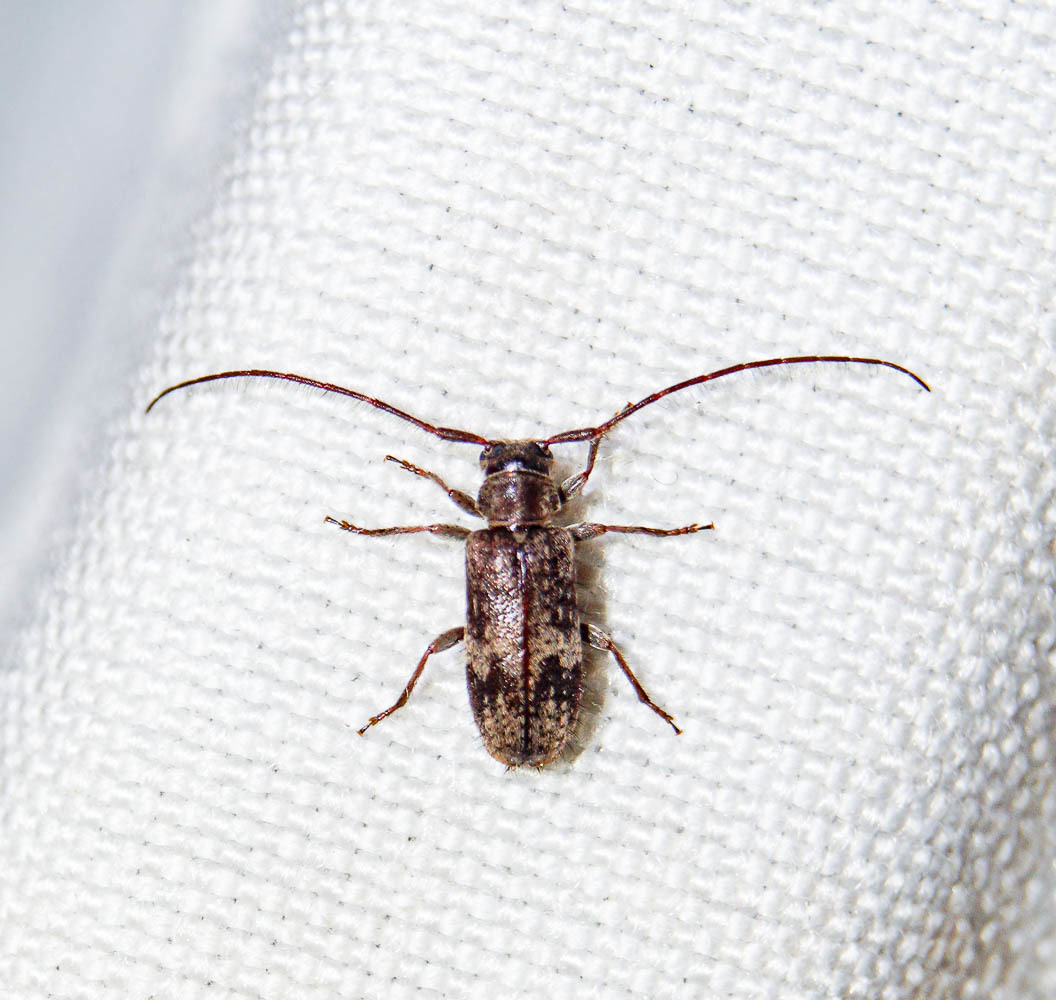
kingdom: Animalia
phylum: Arthropoda
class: Insecta
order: Coleoptera
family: Cerambycidae
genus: Exocentrus
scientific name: Exocentrus adspersus
